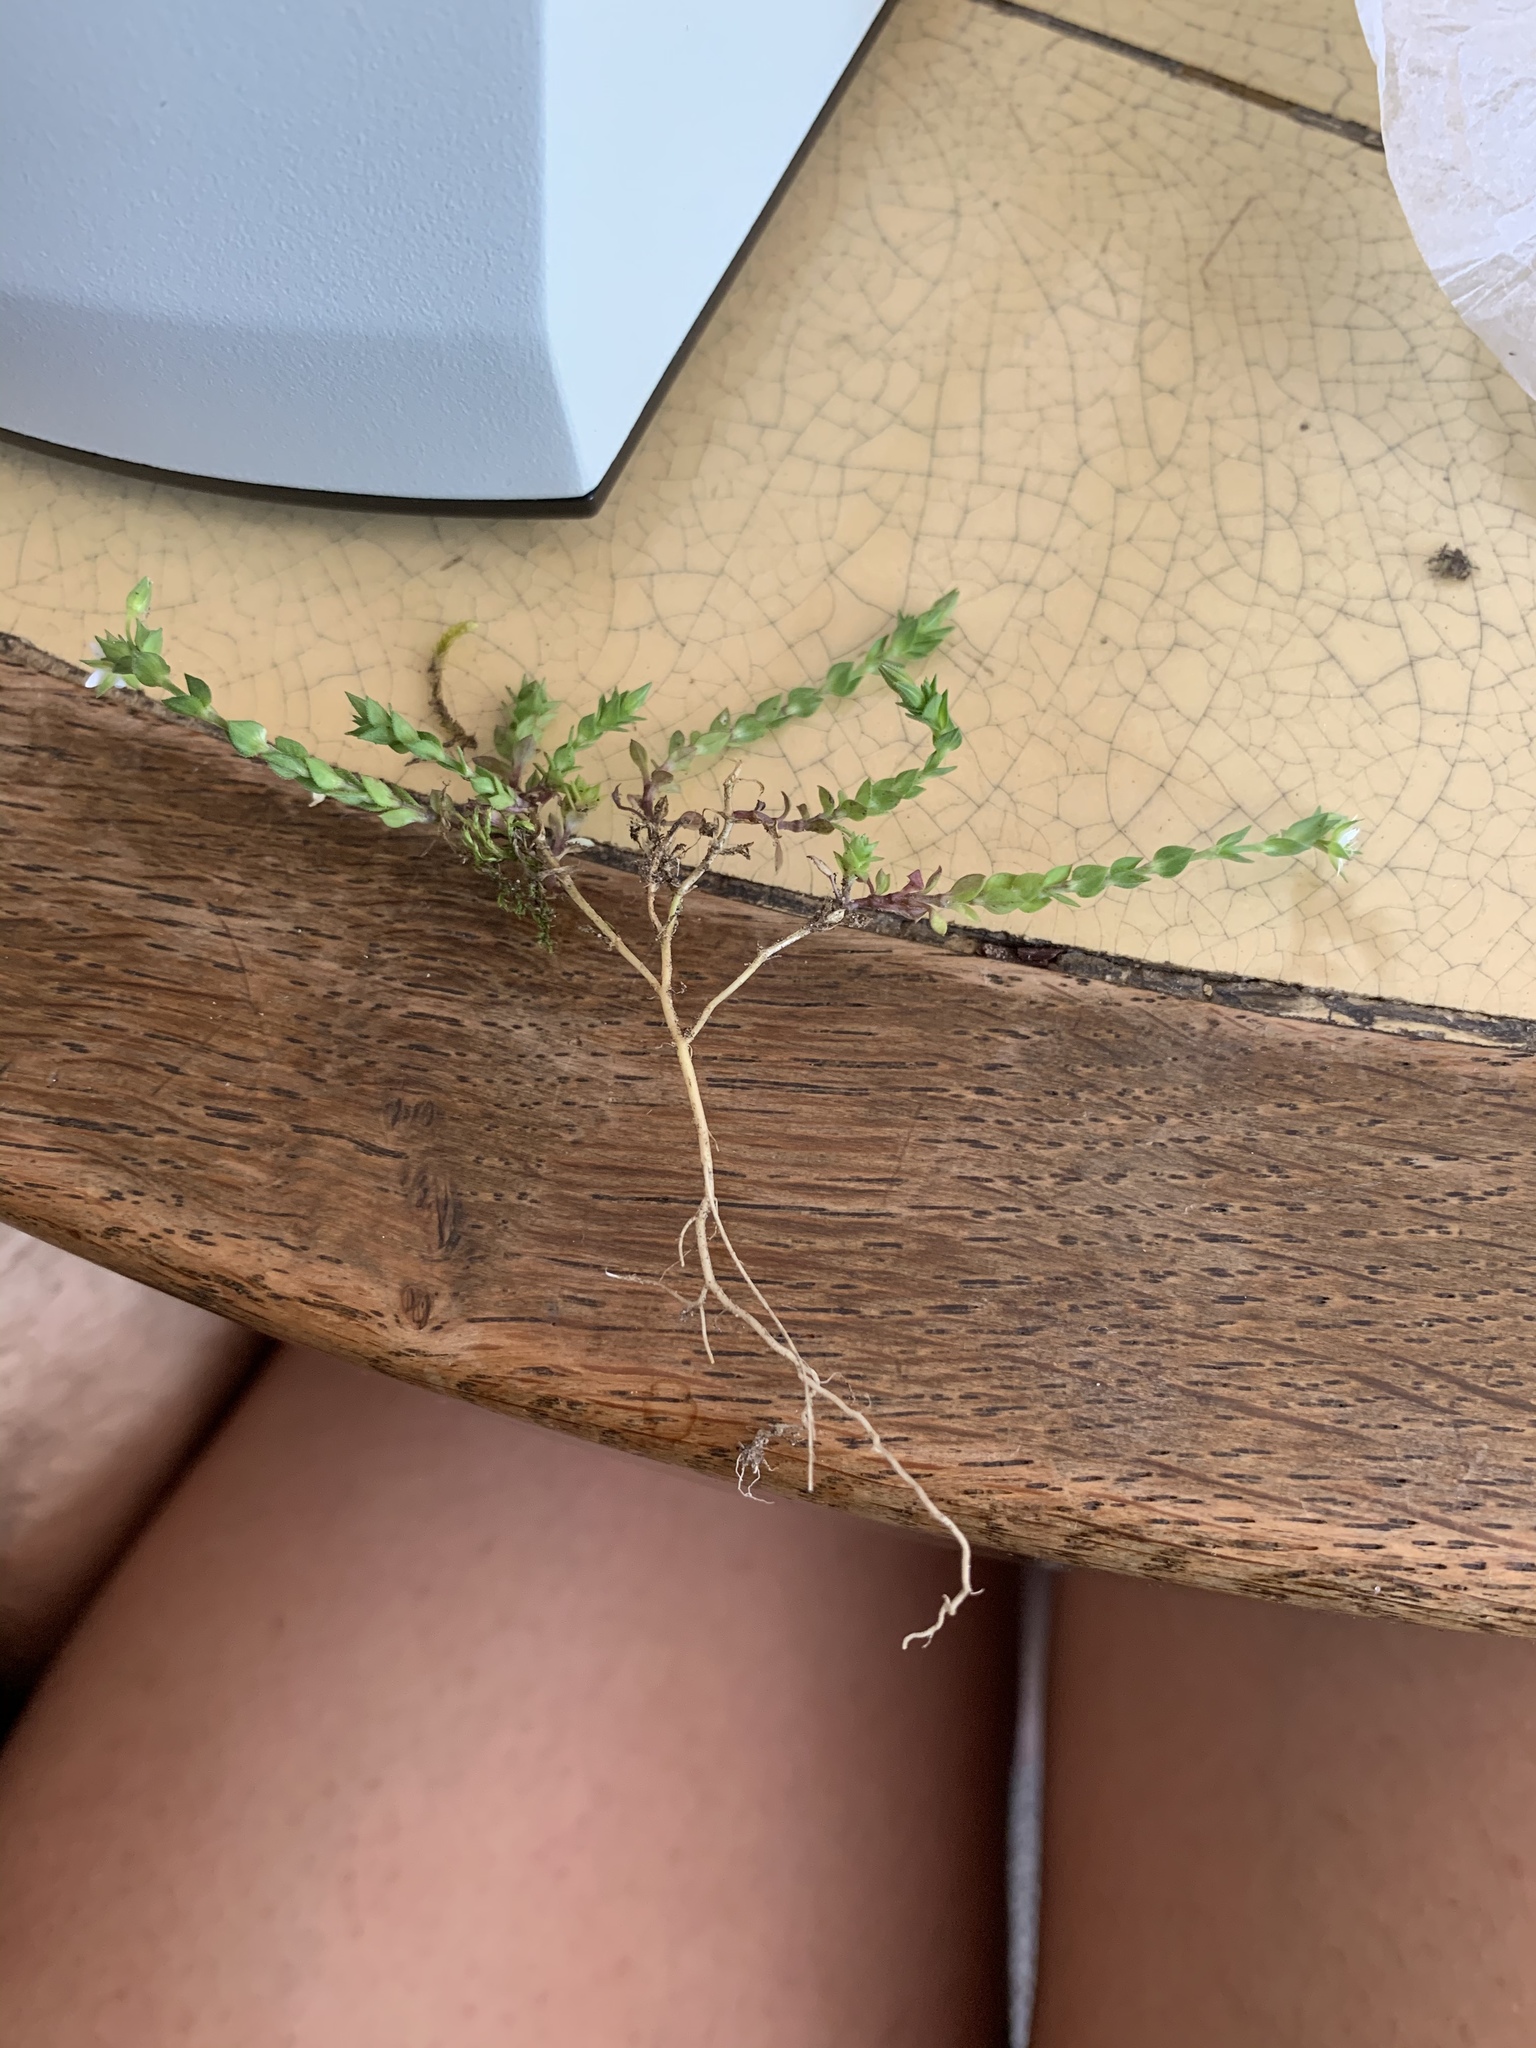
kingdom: Plantae
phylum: Tracheophyta
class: Magnoliopsida
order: Caryophyllales
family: Caryophyllaceae
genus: Arenaria
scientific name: Arenaria serpyllifolia
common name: Thyme-leaved sandwort
